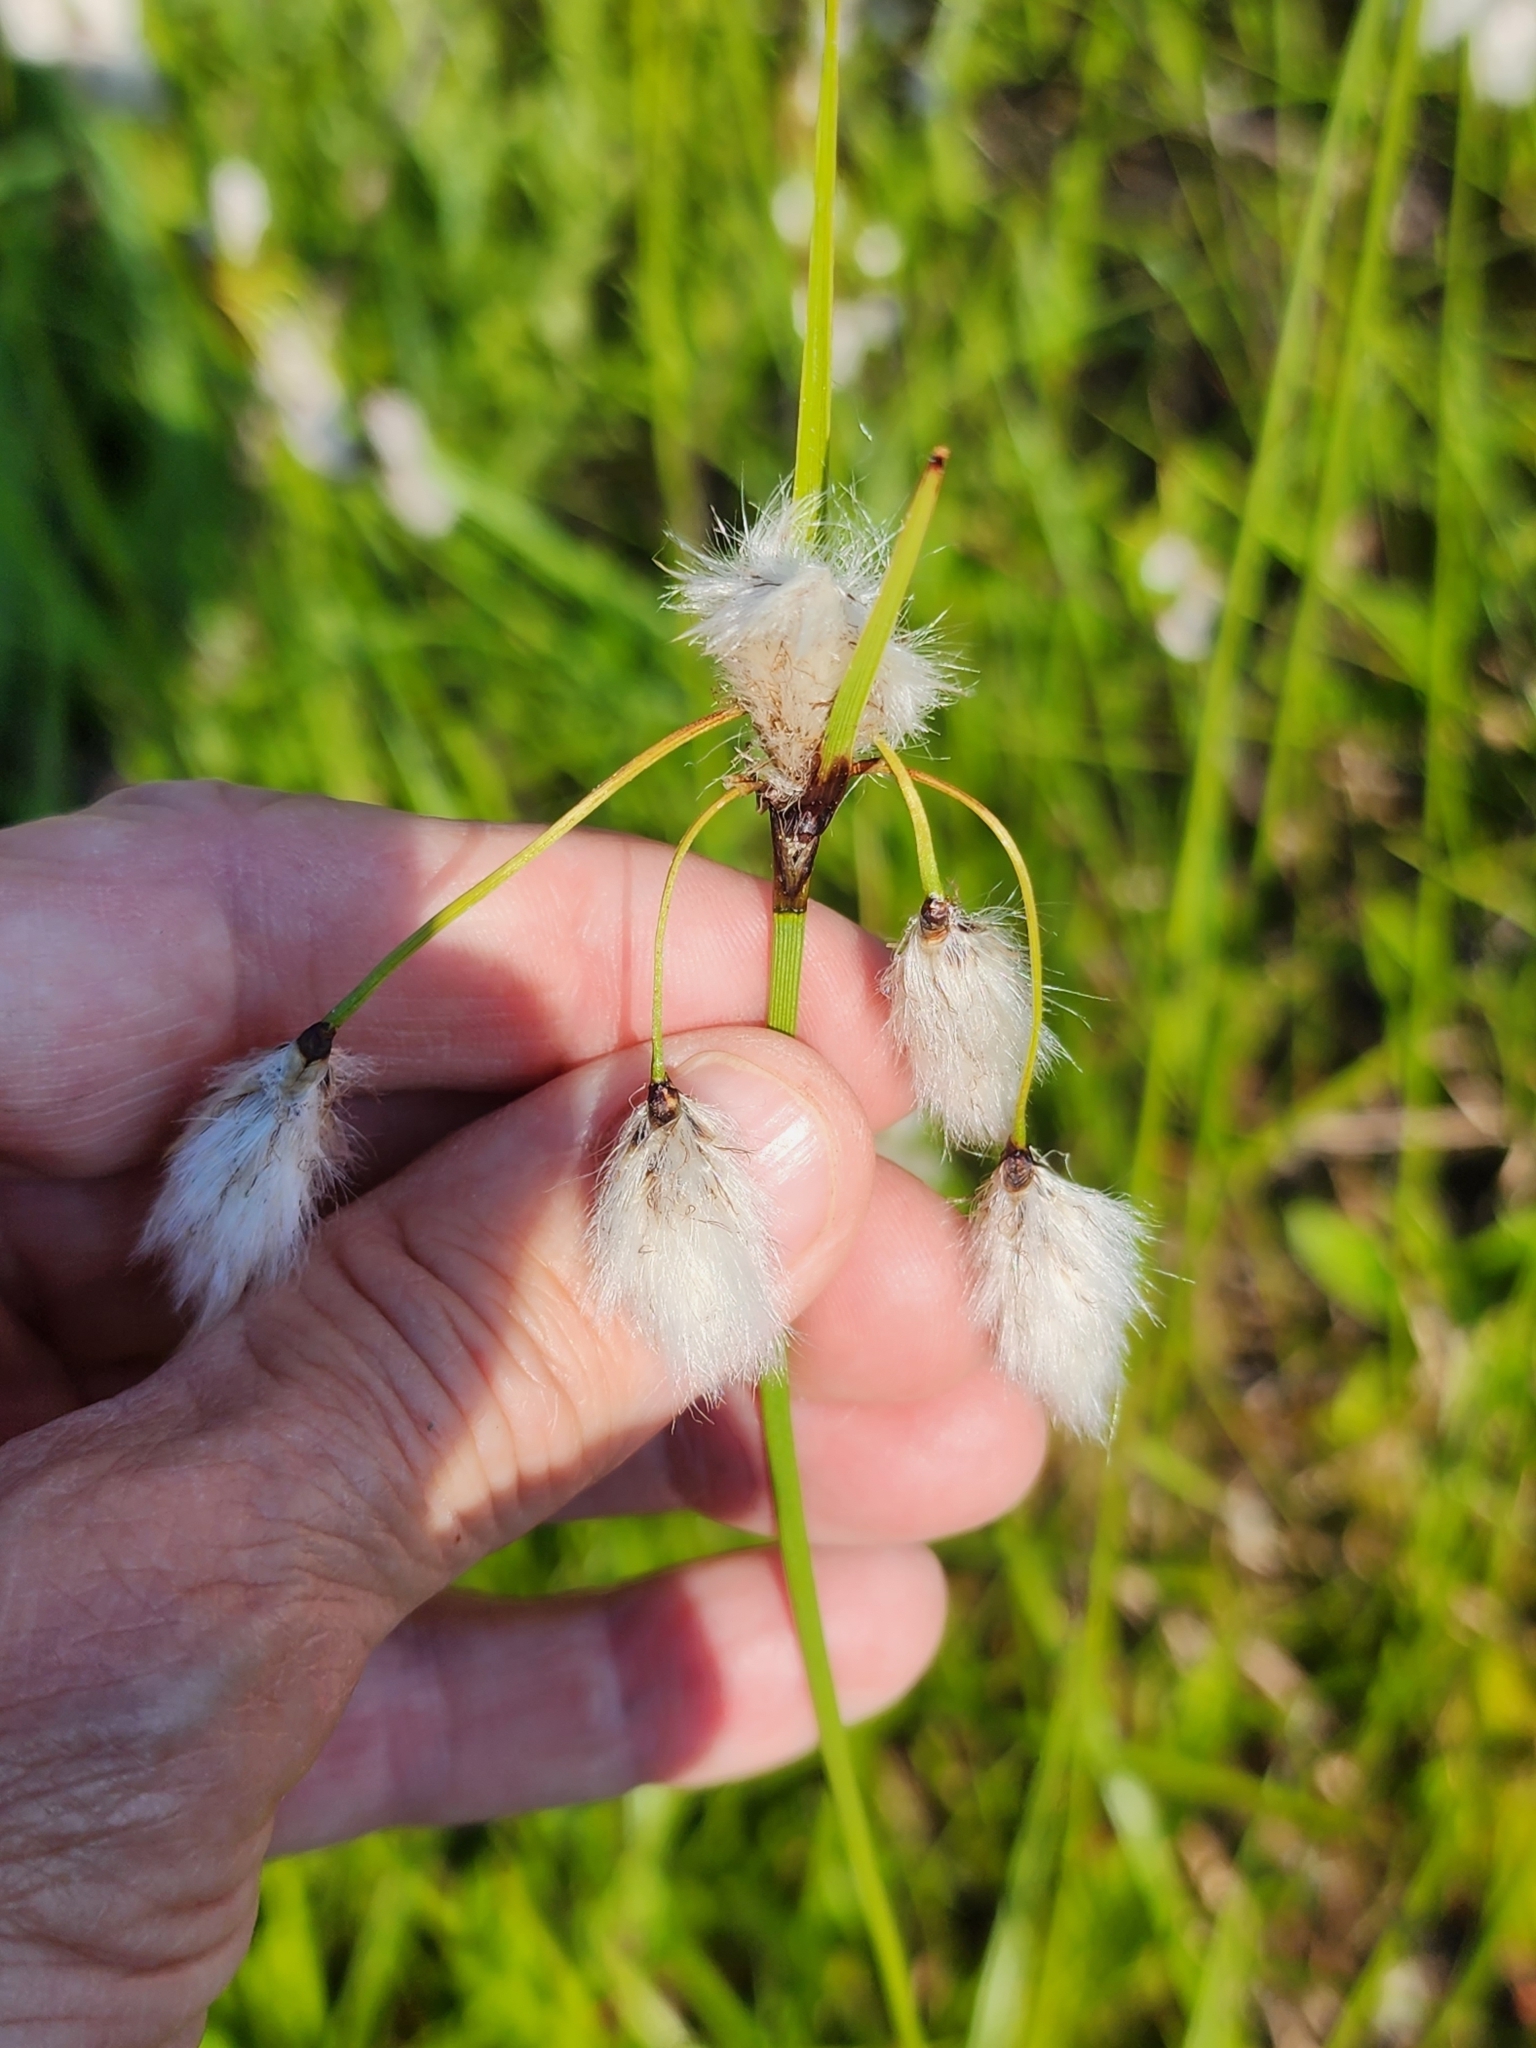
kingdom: Plantae
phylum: Tracheophyta
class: Liliopsida
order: Poales
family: Cyperaceae
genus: Eriophorum
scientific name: Eriophorum angustifolium
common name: Common cottongrass
